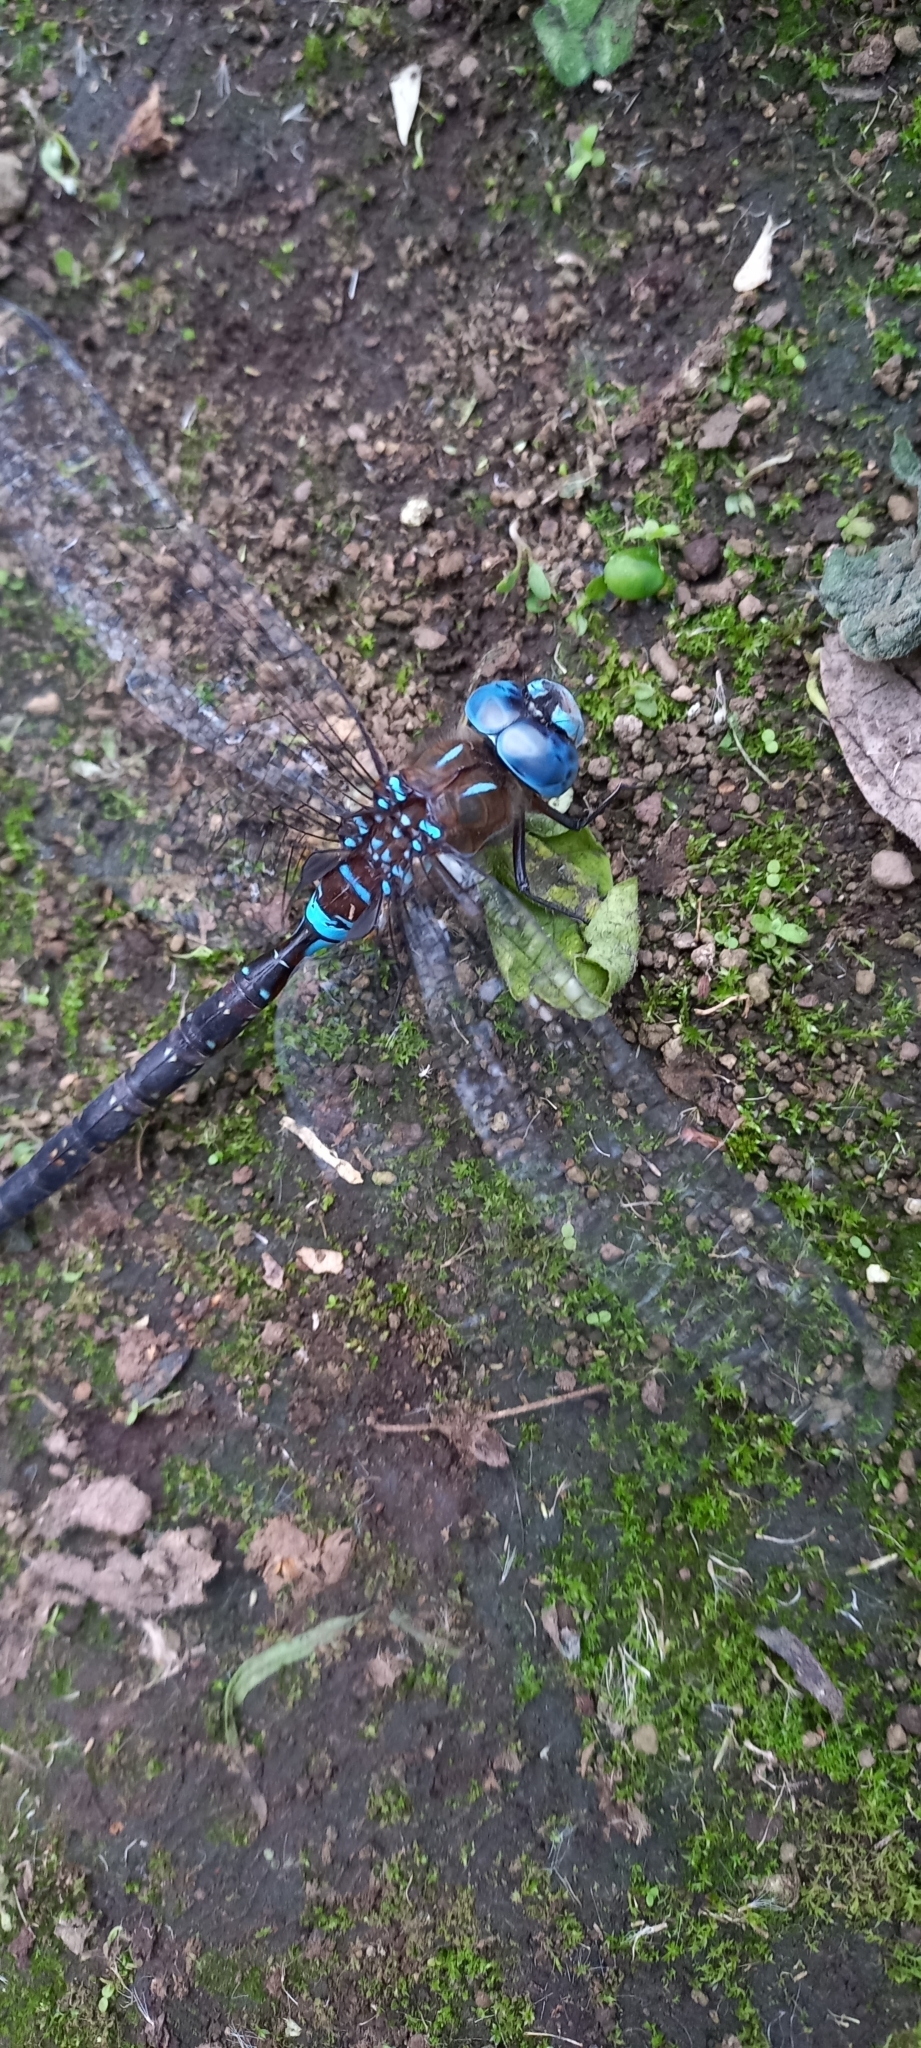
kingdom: Animalia
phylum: Arthropoda
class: Insecta
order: Odonata
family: Aeshnidae
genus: Rhionaeschna
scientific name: Rhionaeschna jalapensis
